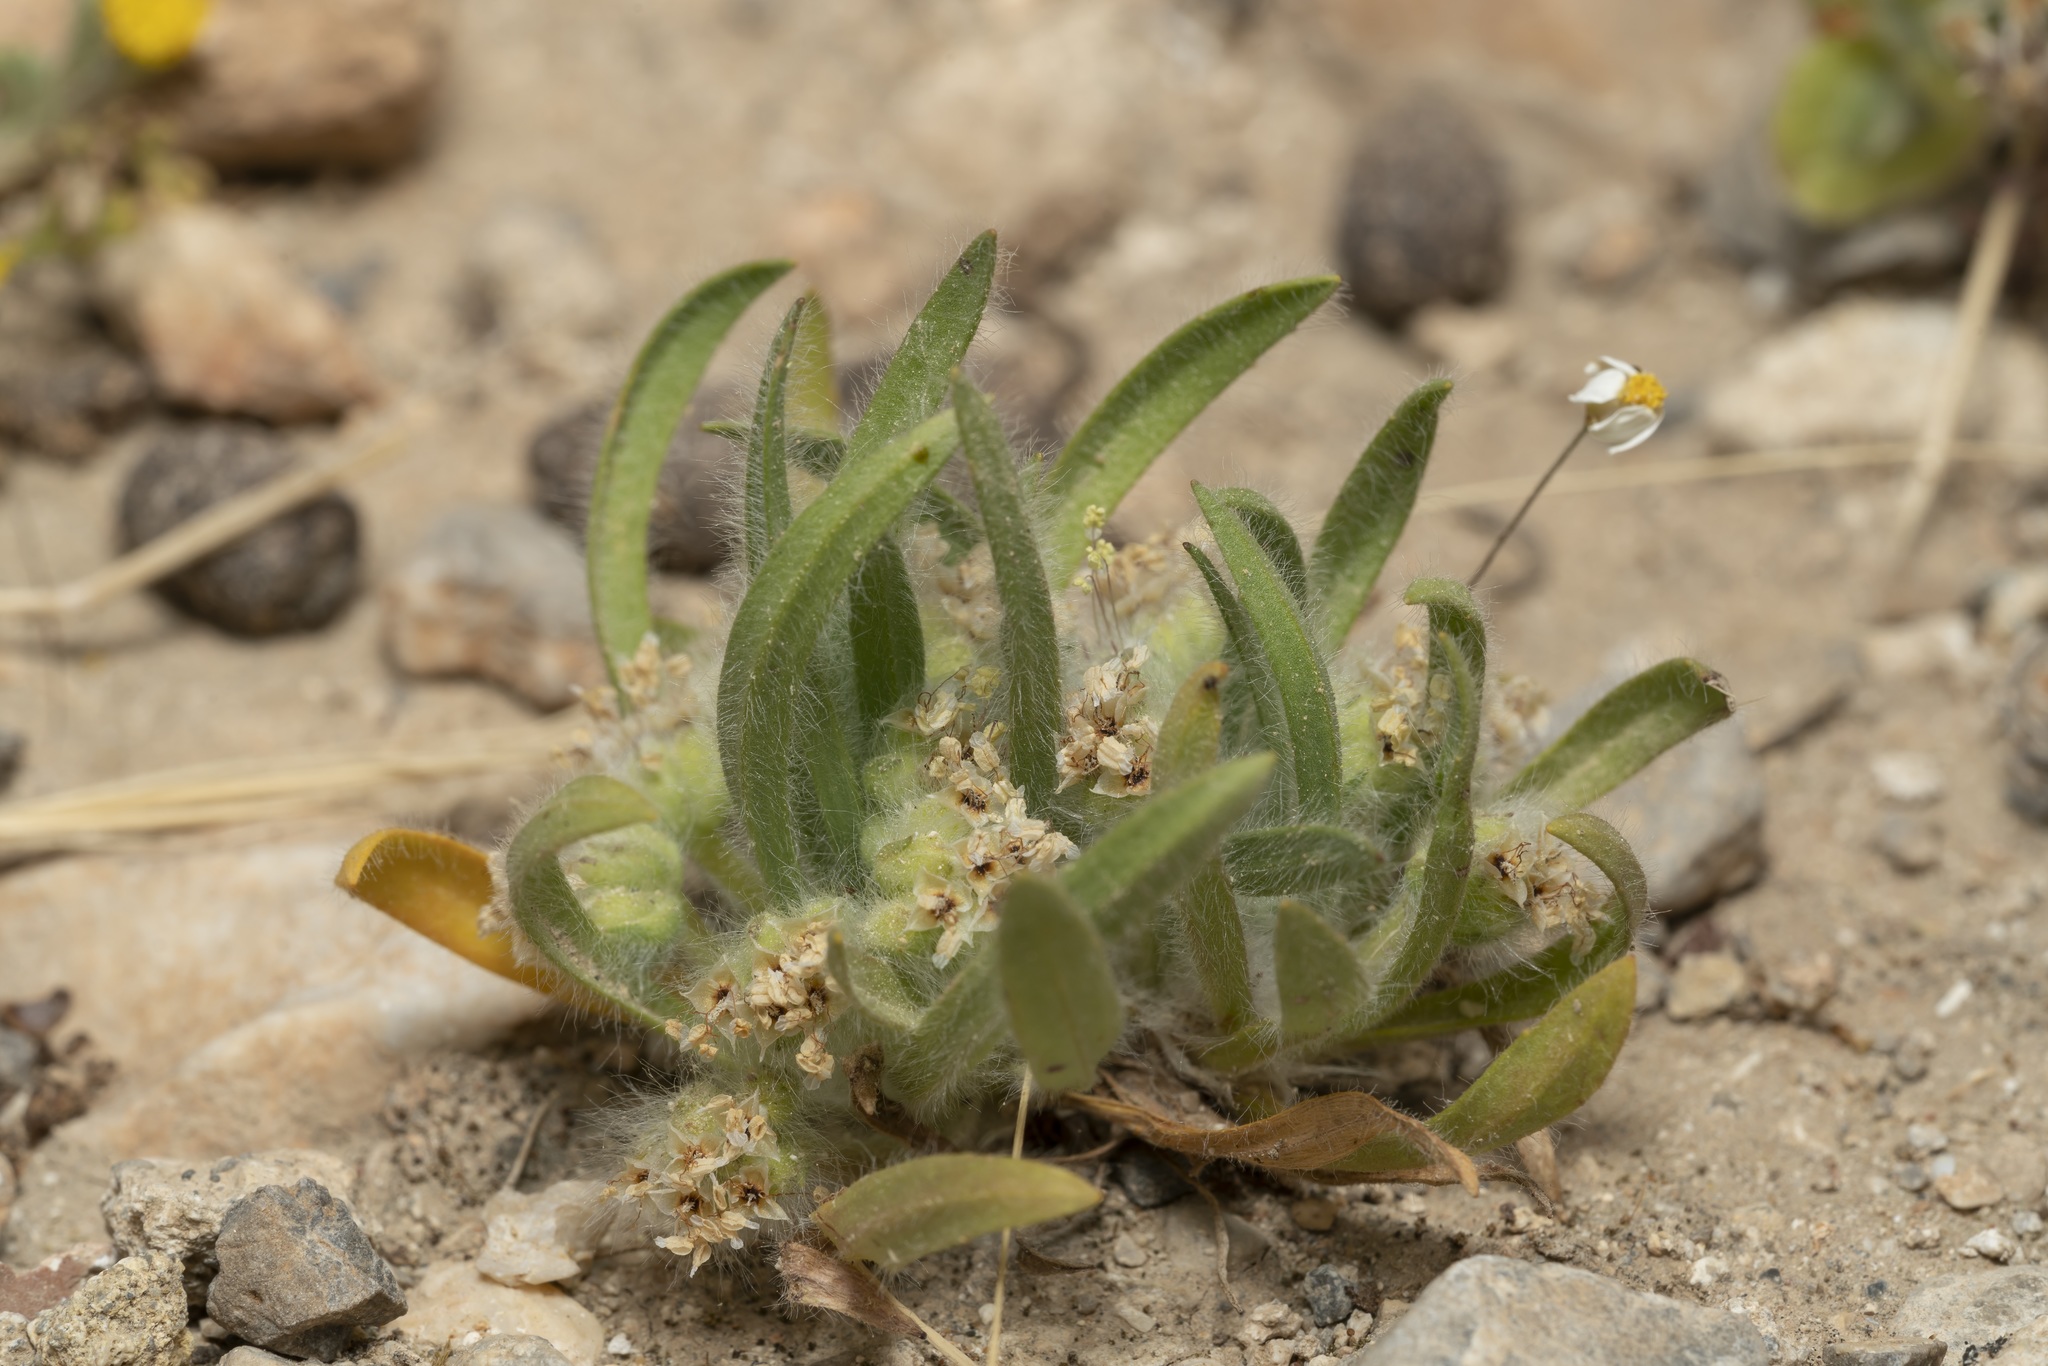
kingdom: Plantae
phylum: Tracheophyta
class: Magnoliopsida
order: Lamiales
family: Plantaginaceae
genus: Plantago
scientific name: Plantago cretica
